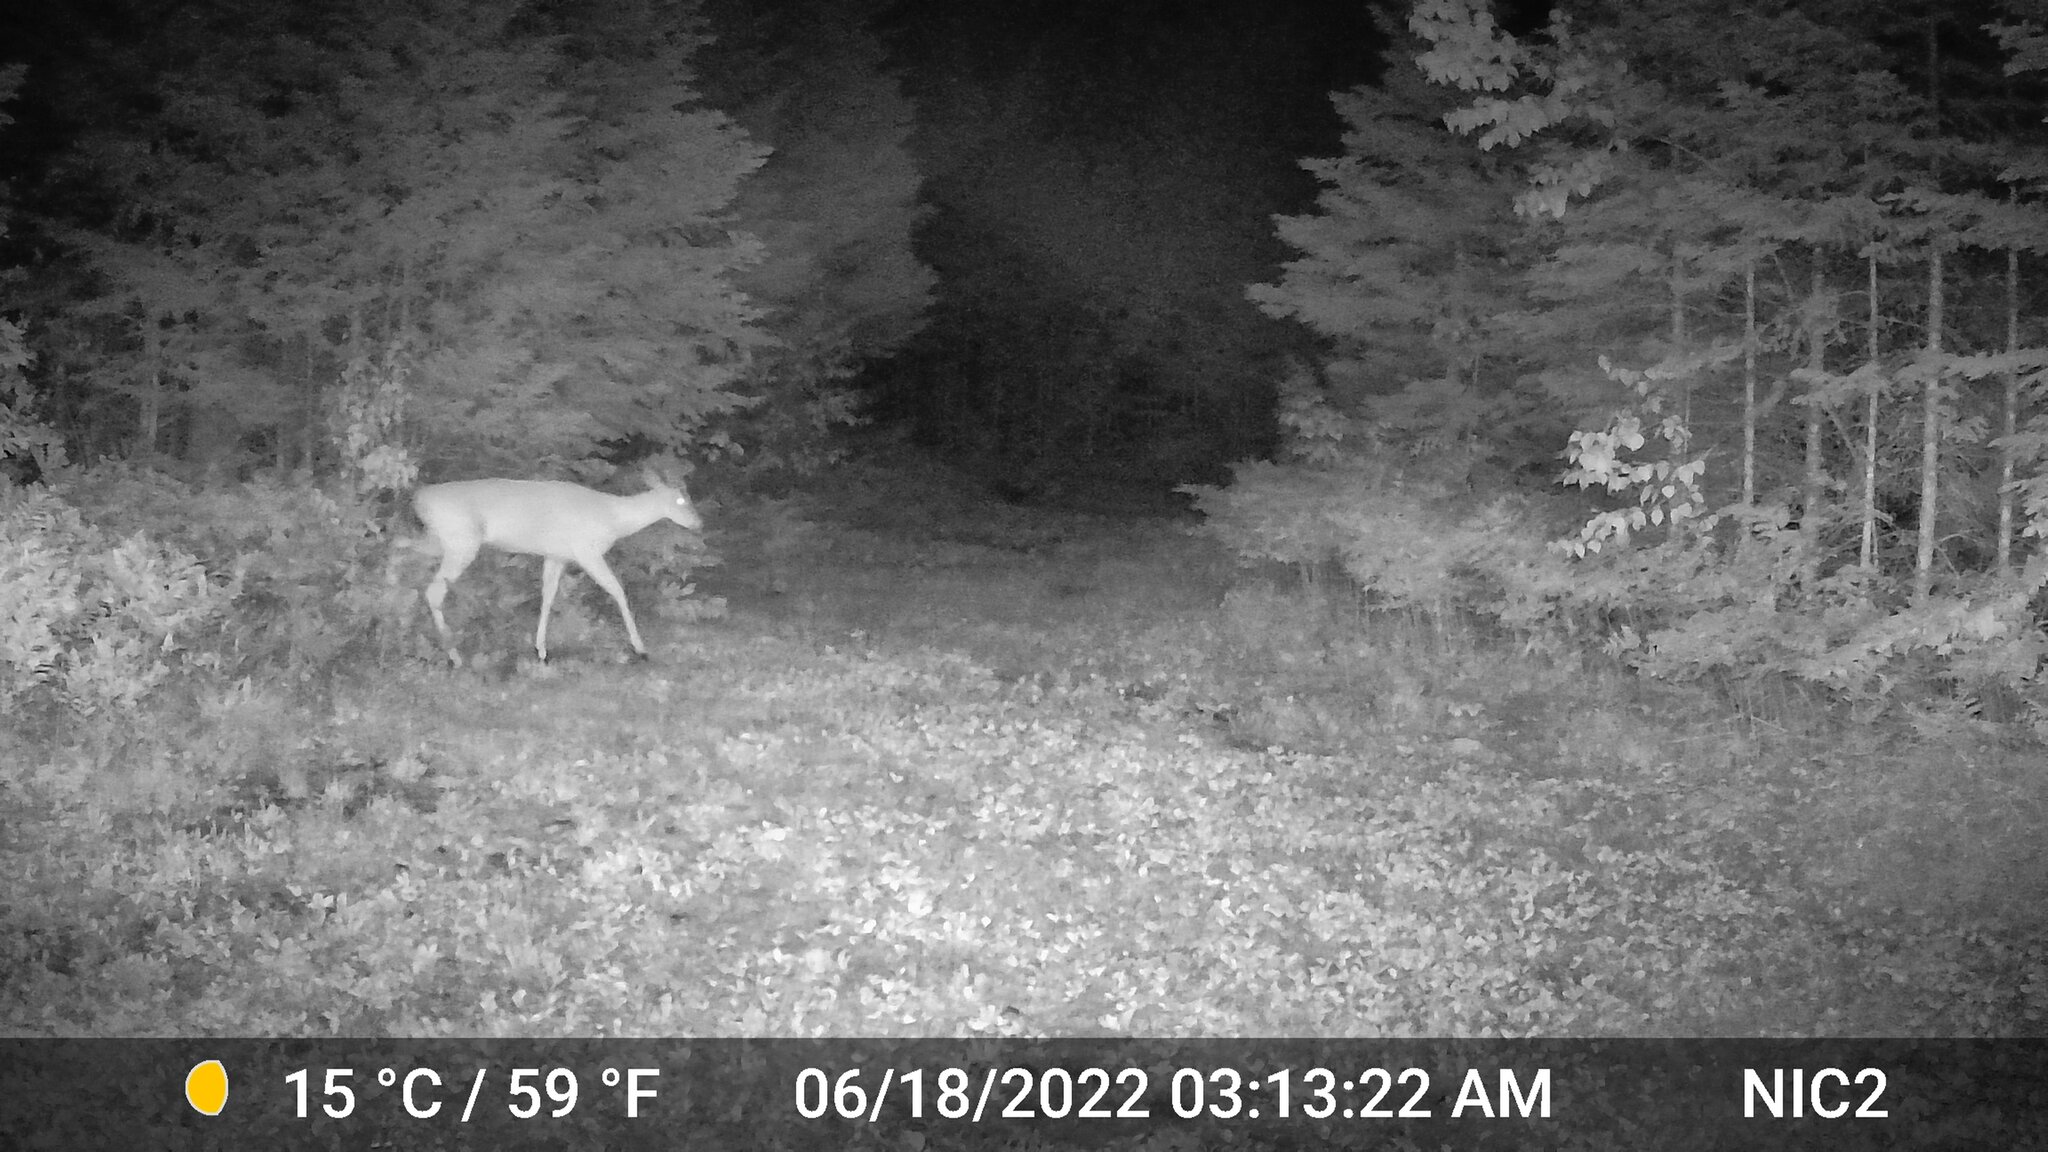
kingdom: Animalia
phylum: Chordata
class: Mammalia
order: Artiodactyla
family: Cervidae
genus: Odocoileus
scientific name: Odocoileus virginianus
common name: White-tailed deer
